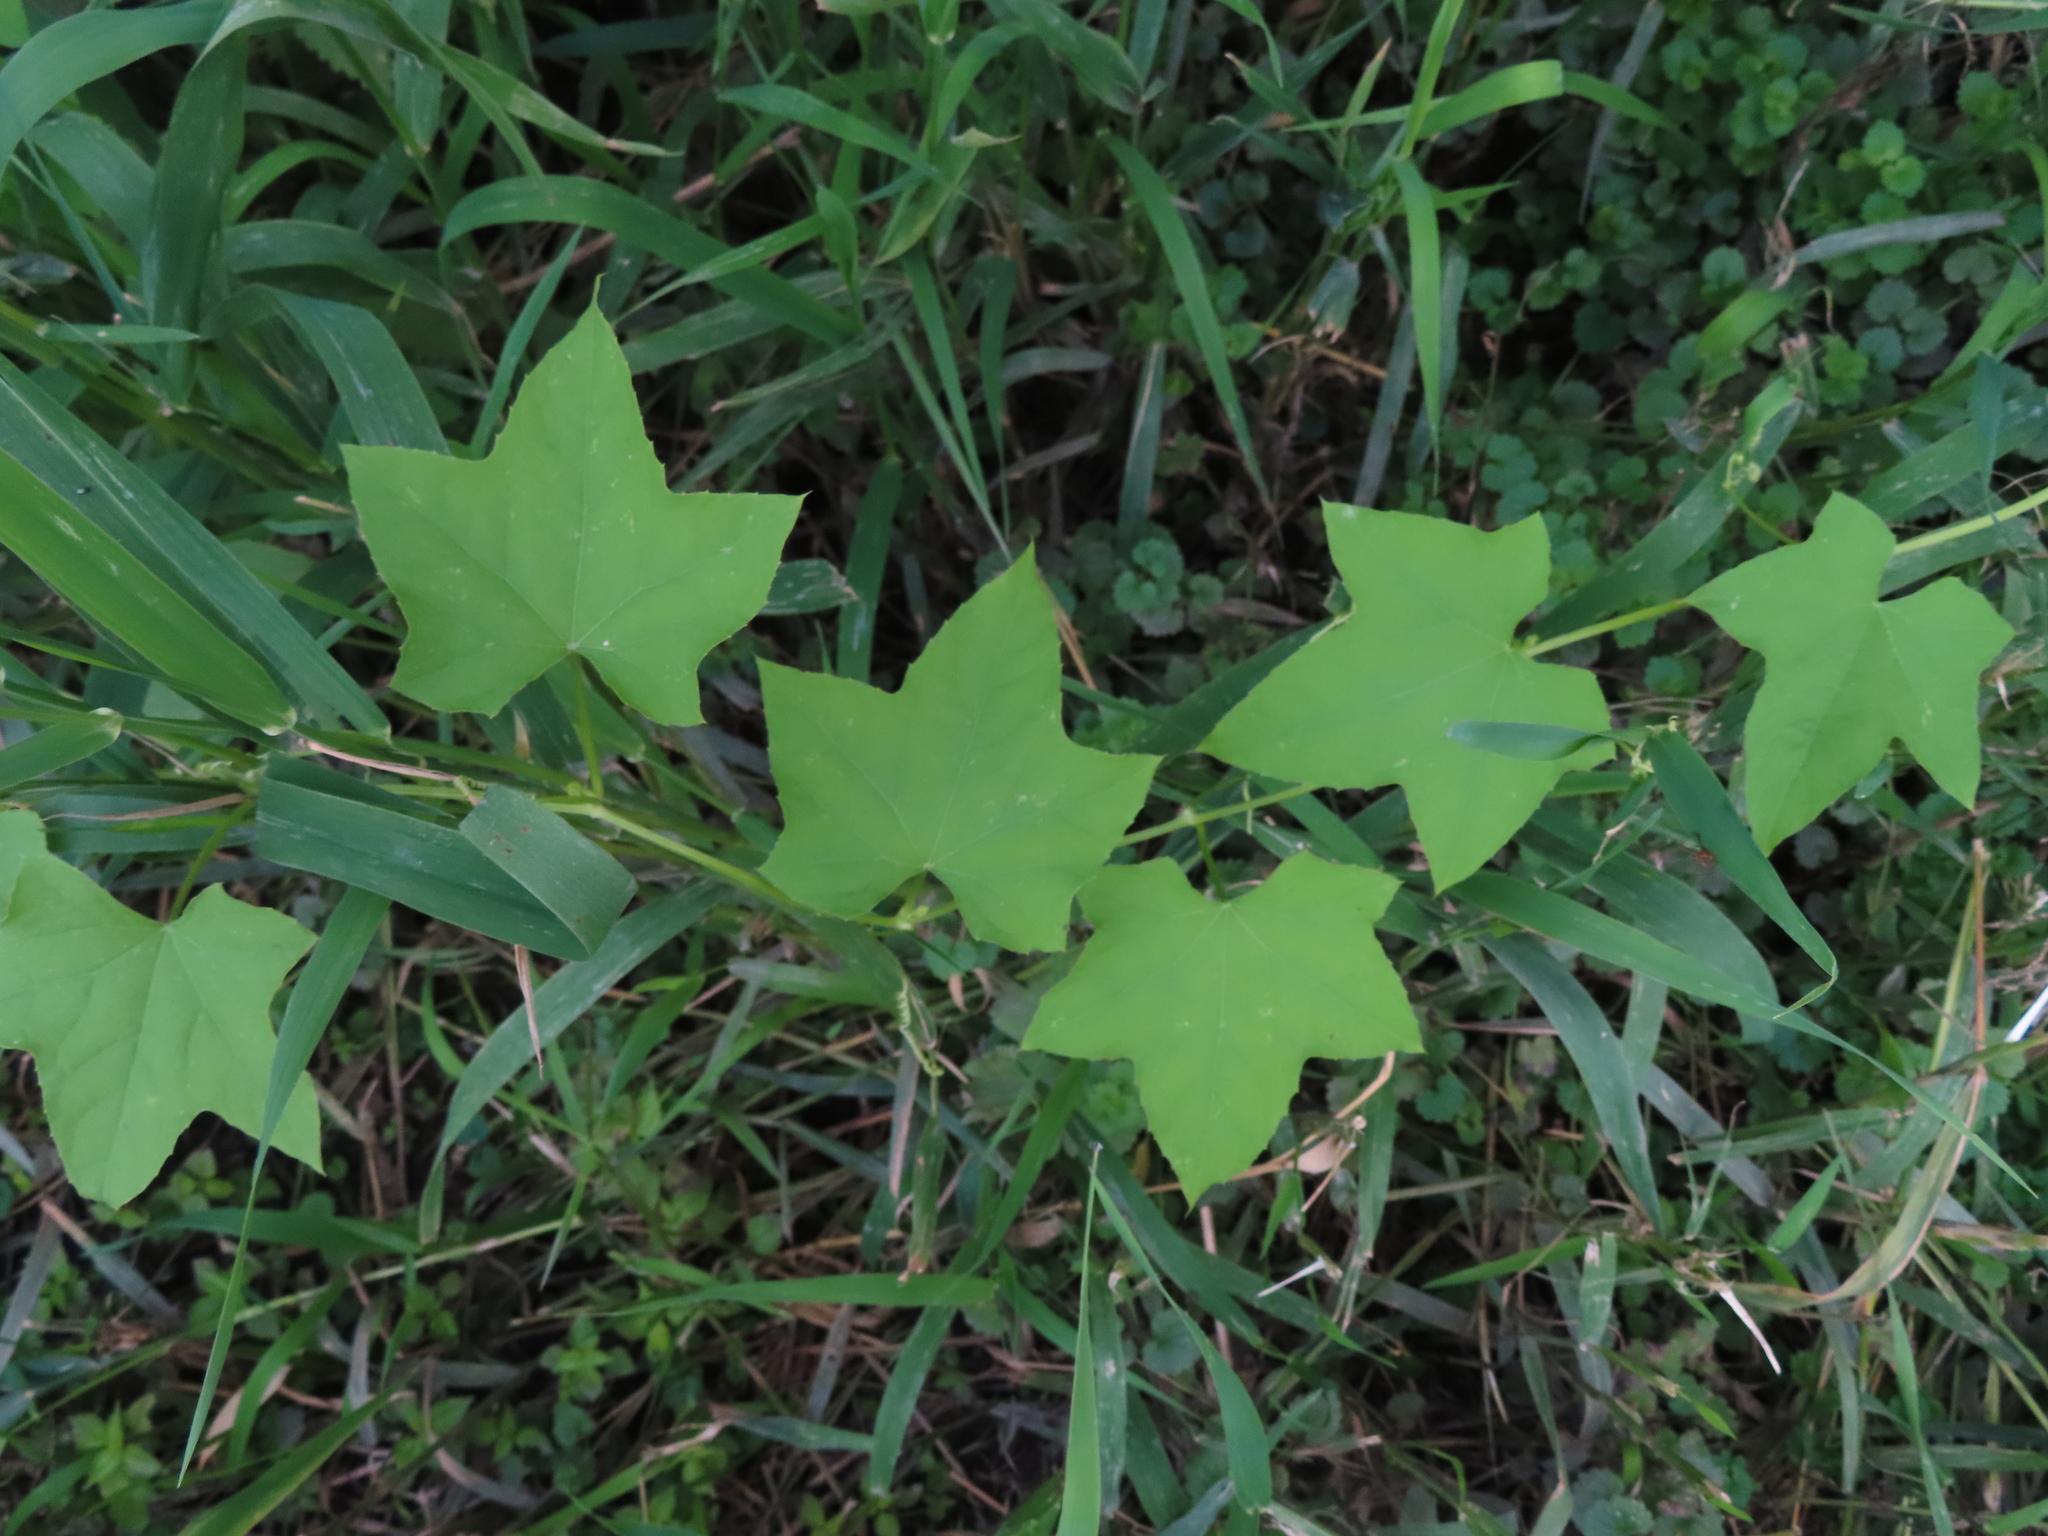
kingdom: Plantae
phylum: Tracheophyta
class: Magnoliopsida
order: Cucurbitales
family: Cucurbitaceae
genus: Echinocystis
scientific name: Echinocystis lobata
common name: Wild cucumber
